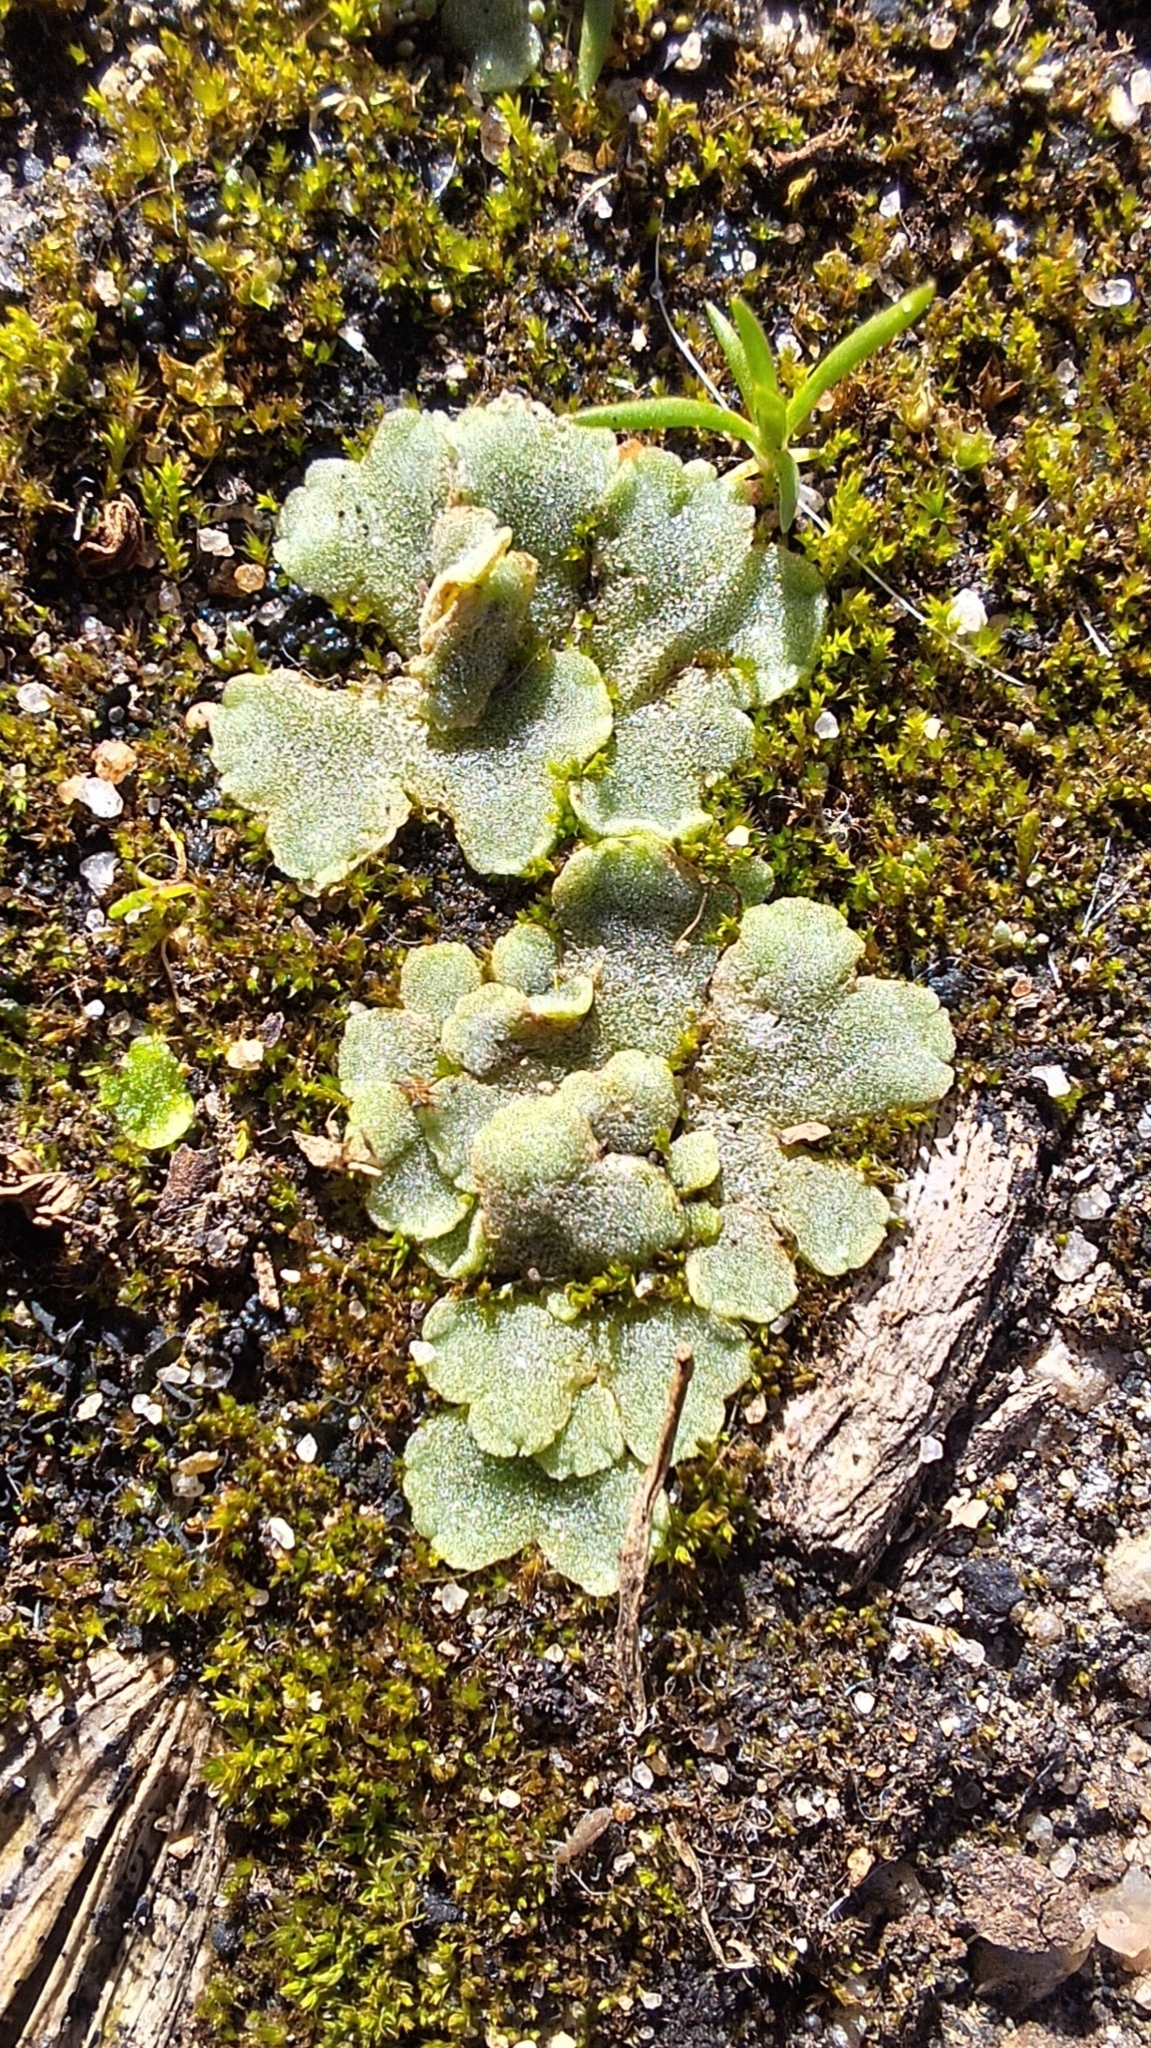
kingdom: Plantae
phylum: Marchantiophyta
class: Marchantiopsida
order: Marchantiales
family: Ricciaceae
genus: Riccia
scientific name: Riccia crystallina
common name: Blue crystalwort
